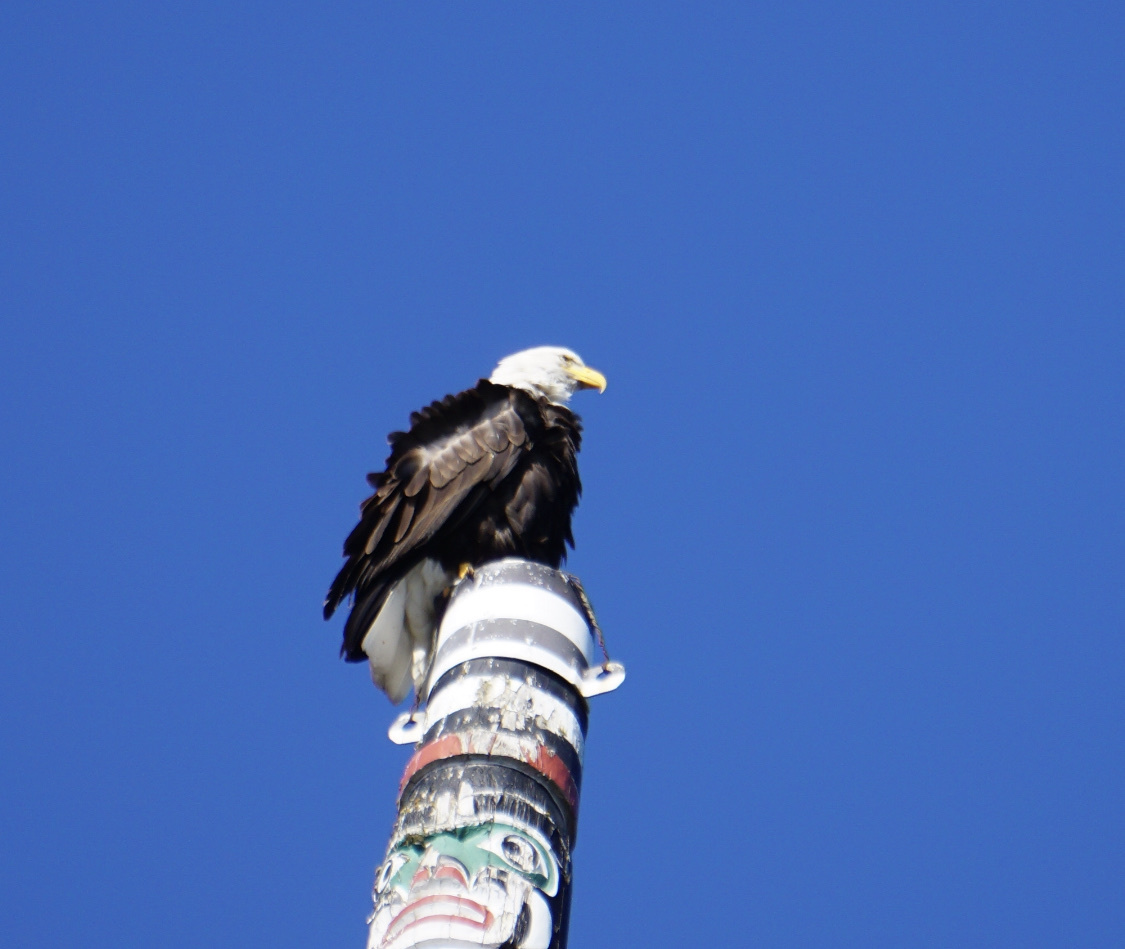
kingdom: Animalia
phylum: Chordata
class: Aves
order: Accipitriformes
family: Accipitridae
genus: Haliaeetus
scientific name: Haliaeetus leucocephalus
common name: Bald eagle
